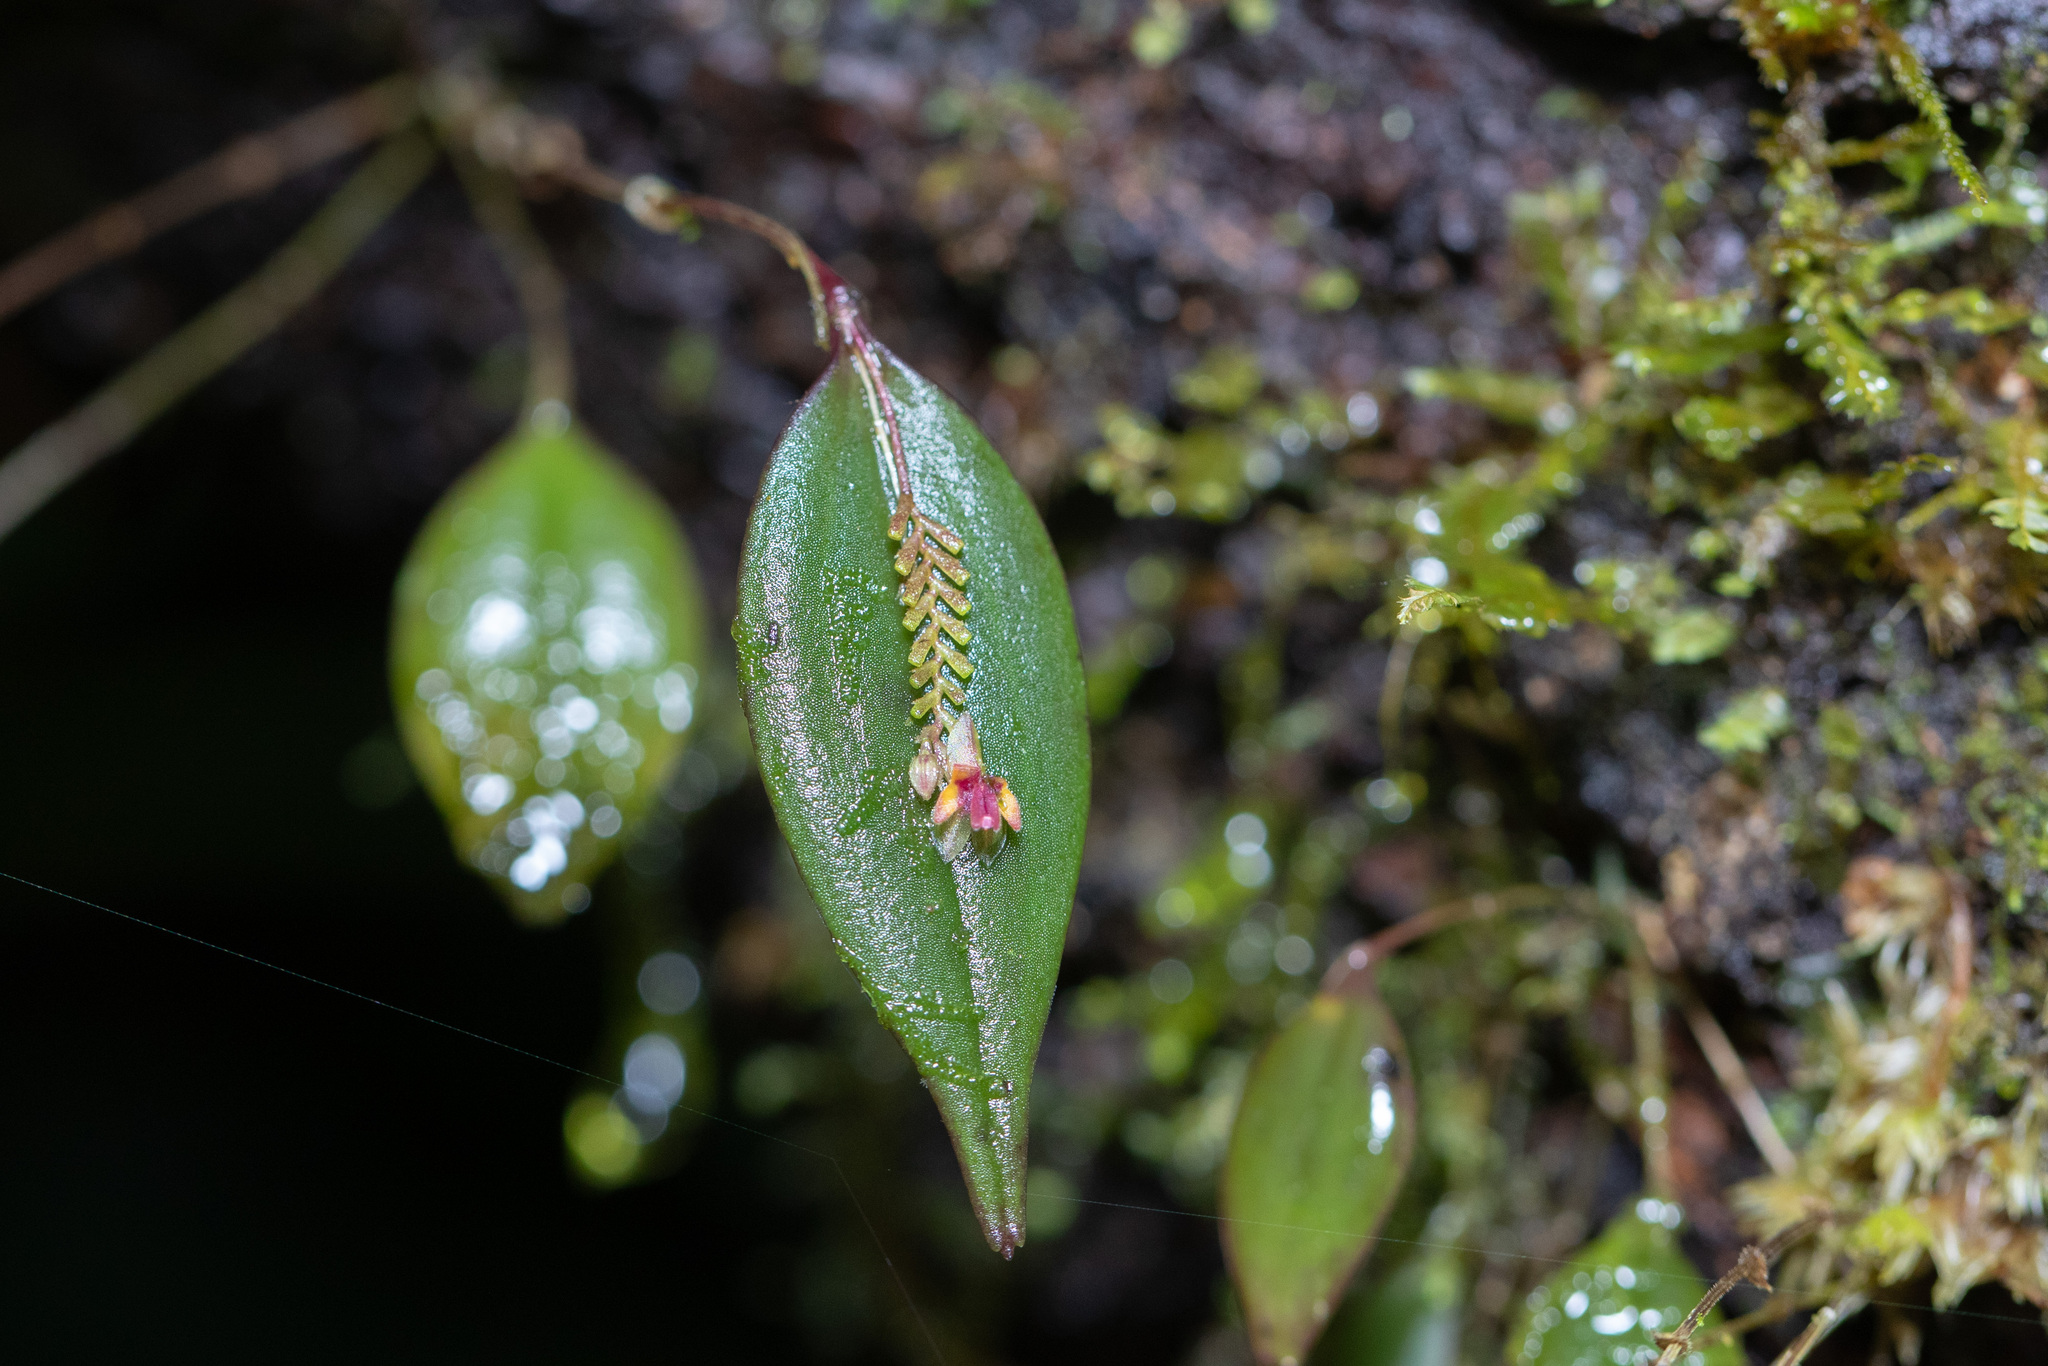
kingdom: Plantae
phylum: Tracheophyta
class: Liliopsida
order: Asparagales
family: Orchidaceae
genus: Lepanthes
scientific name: Lepanthes lindleyana
